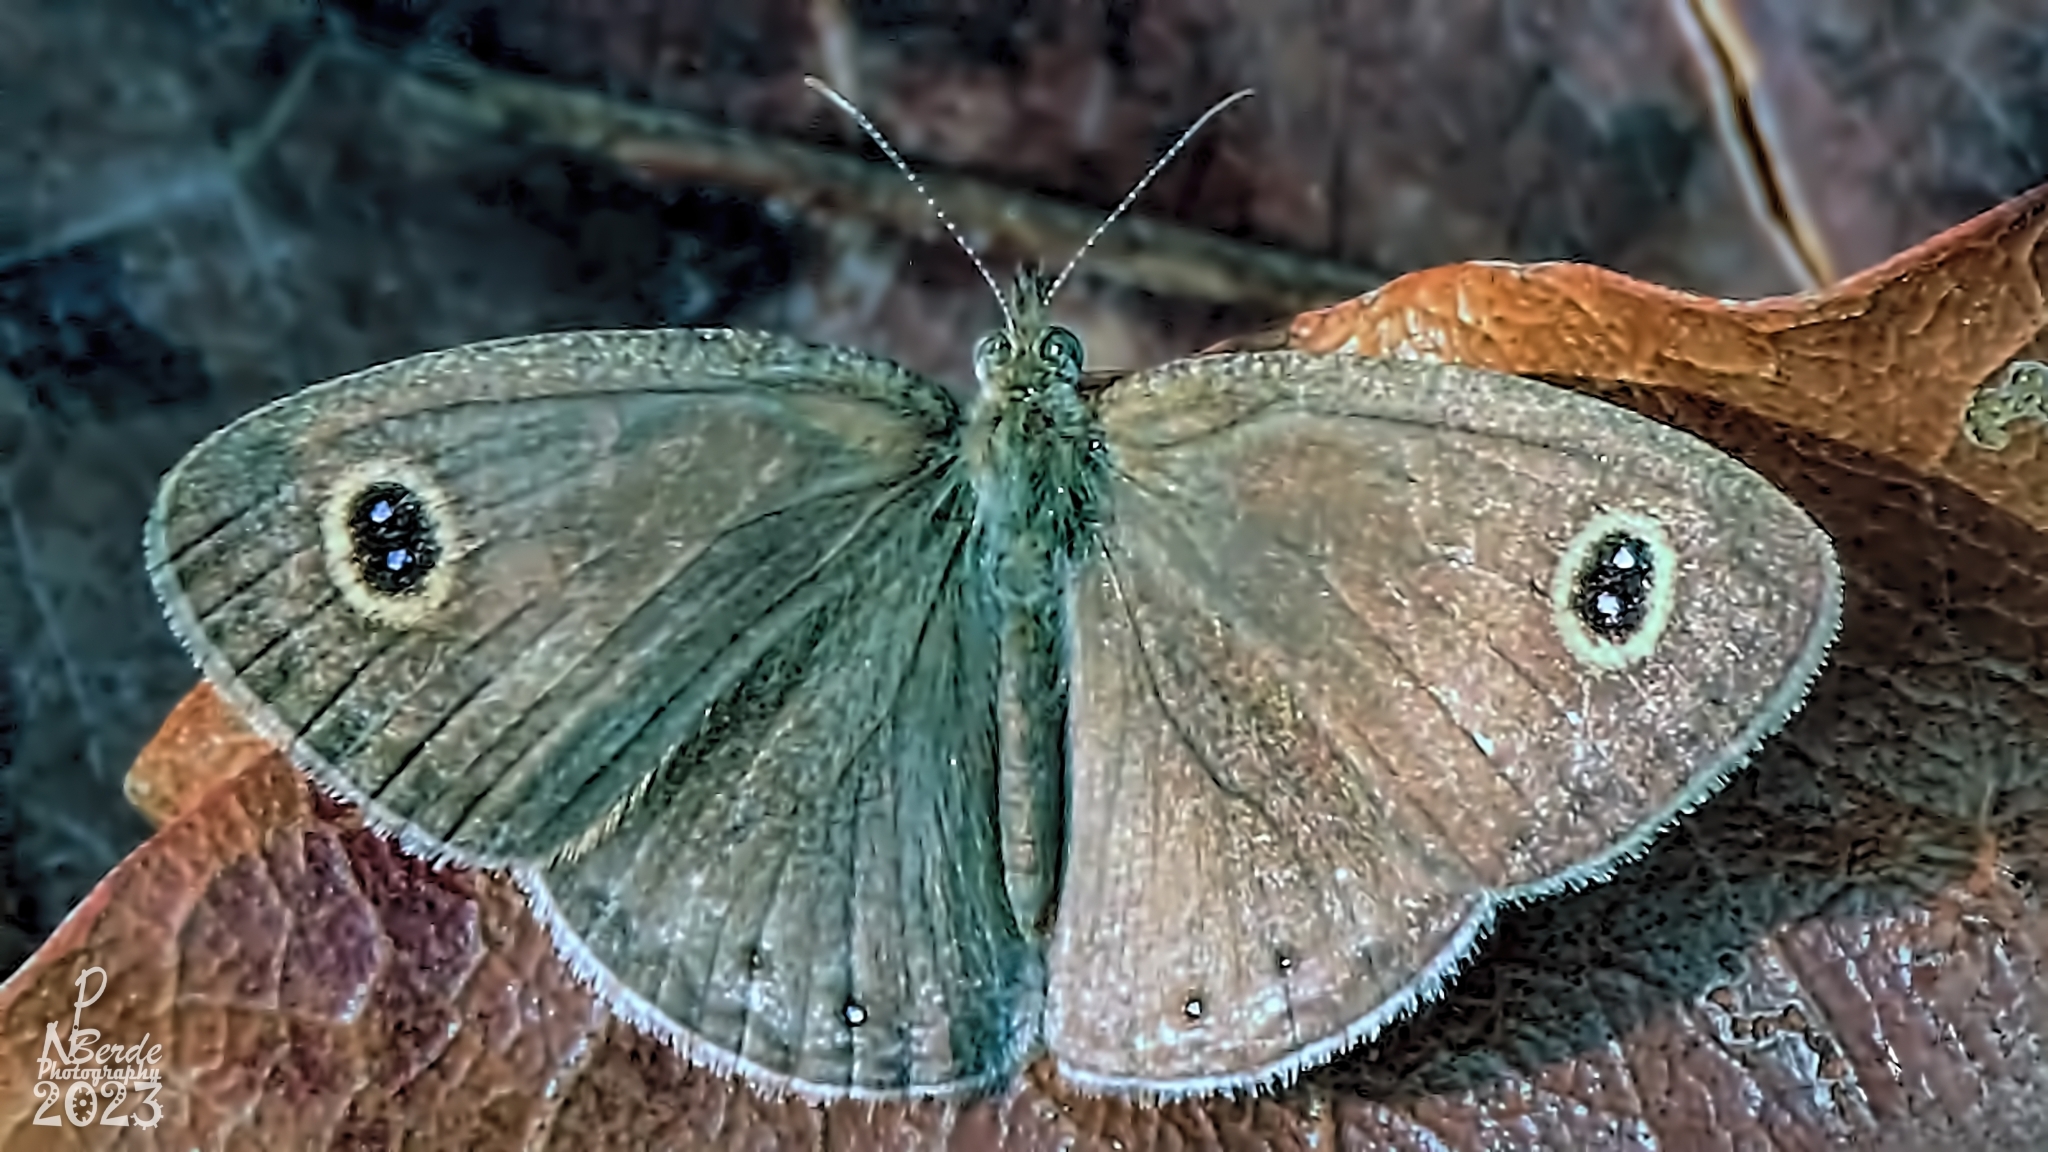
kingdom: Animalia
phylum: Arthropoda
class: Insecta
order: Lepidoptera
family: Nymphalidae
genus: Ypthima
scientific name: Ypthima huebneri
